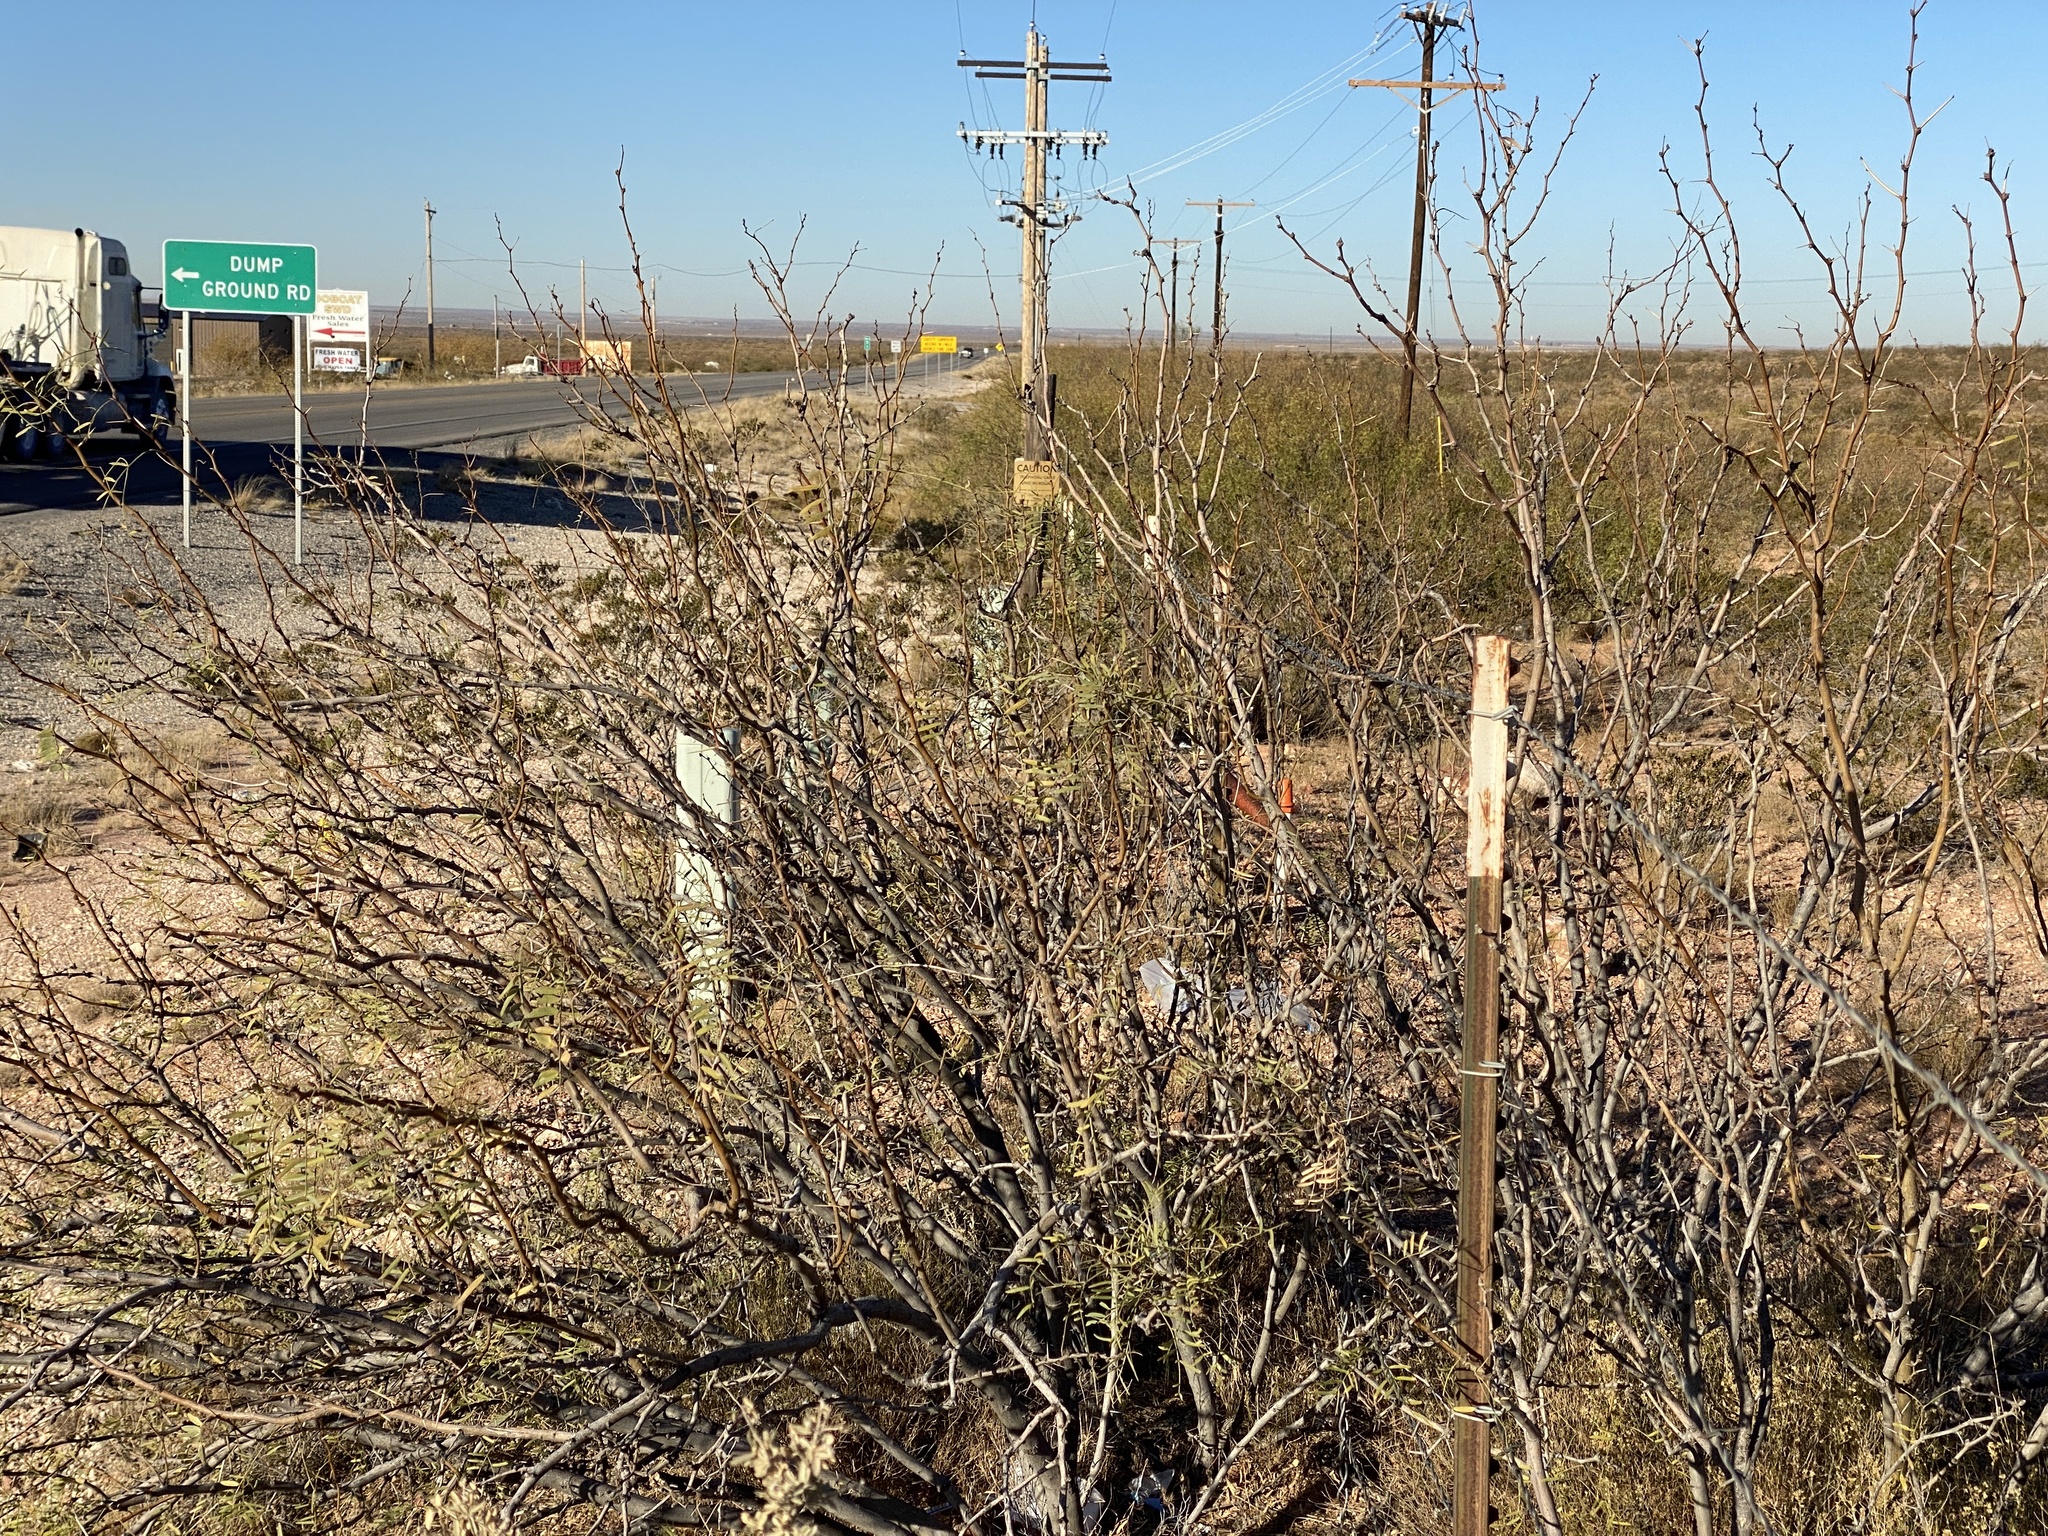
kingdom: Plantae
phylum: Tracheophyta
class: Magnoliopsida
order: Fabales
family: Fabaceae
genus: Prosopis
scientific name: Prosopis glandulosa
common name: Honey mesquite
